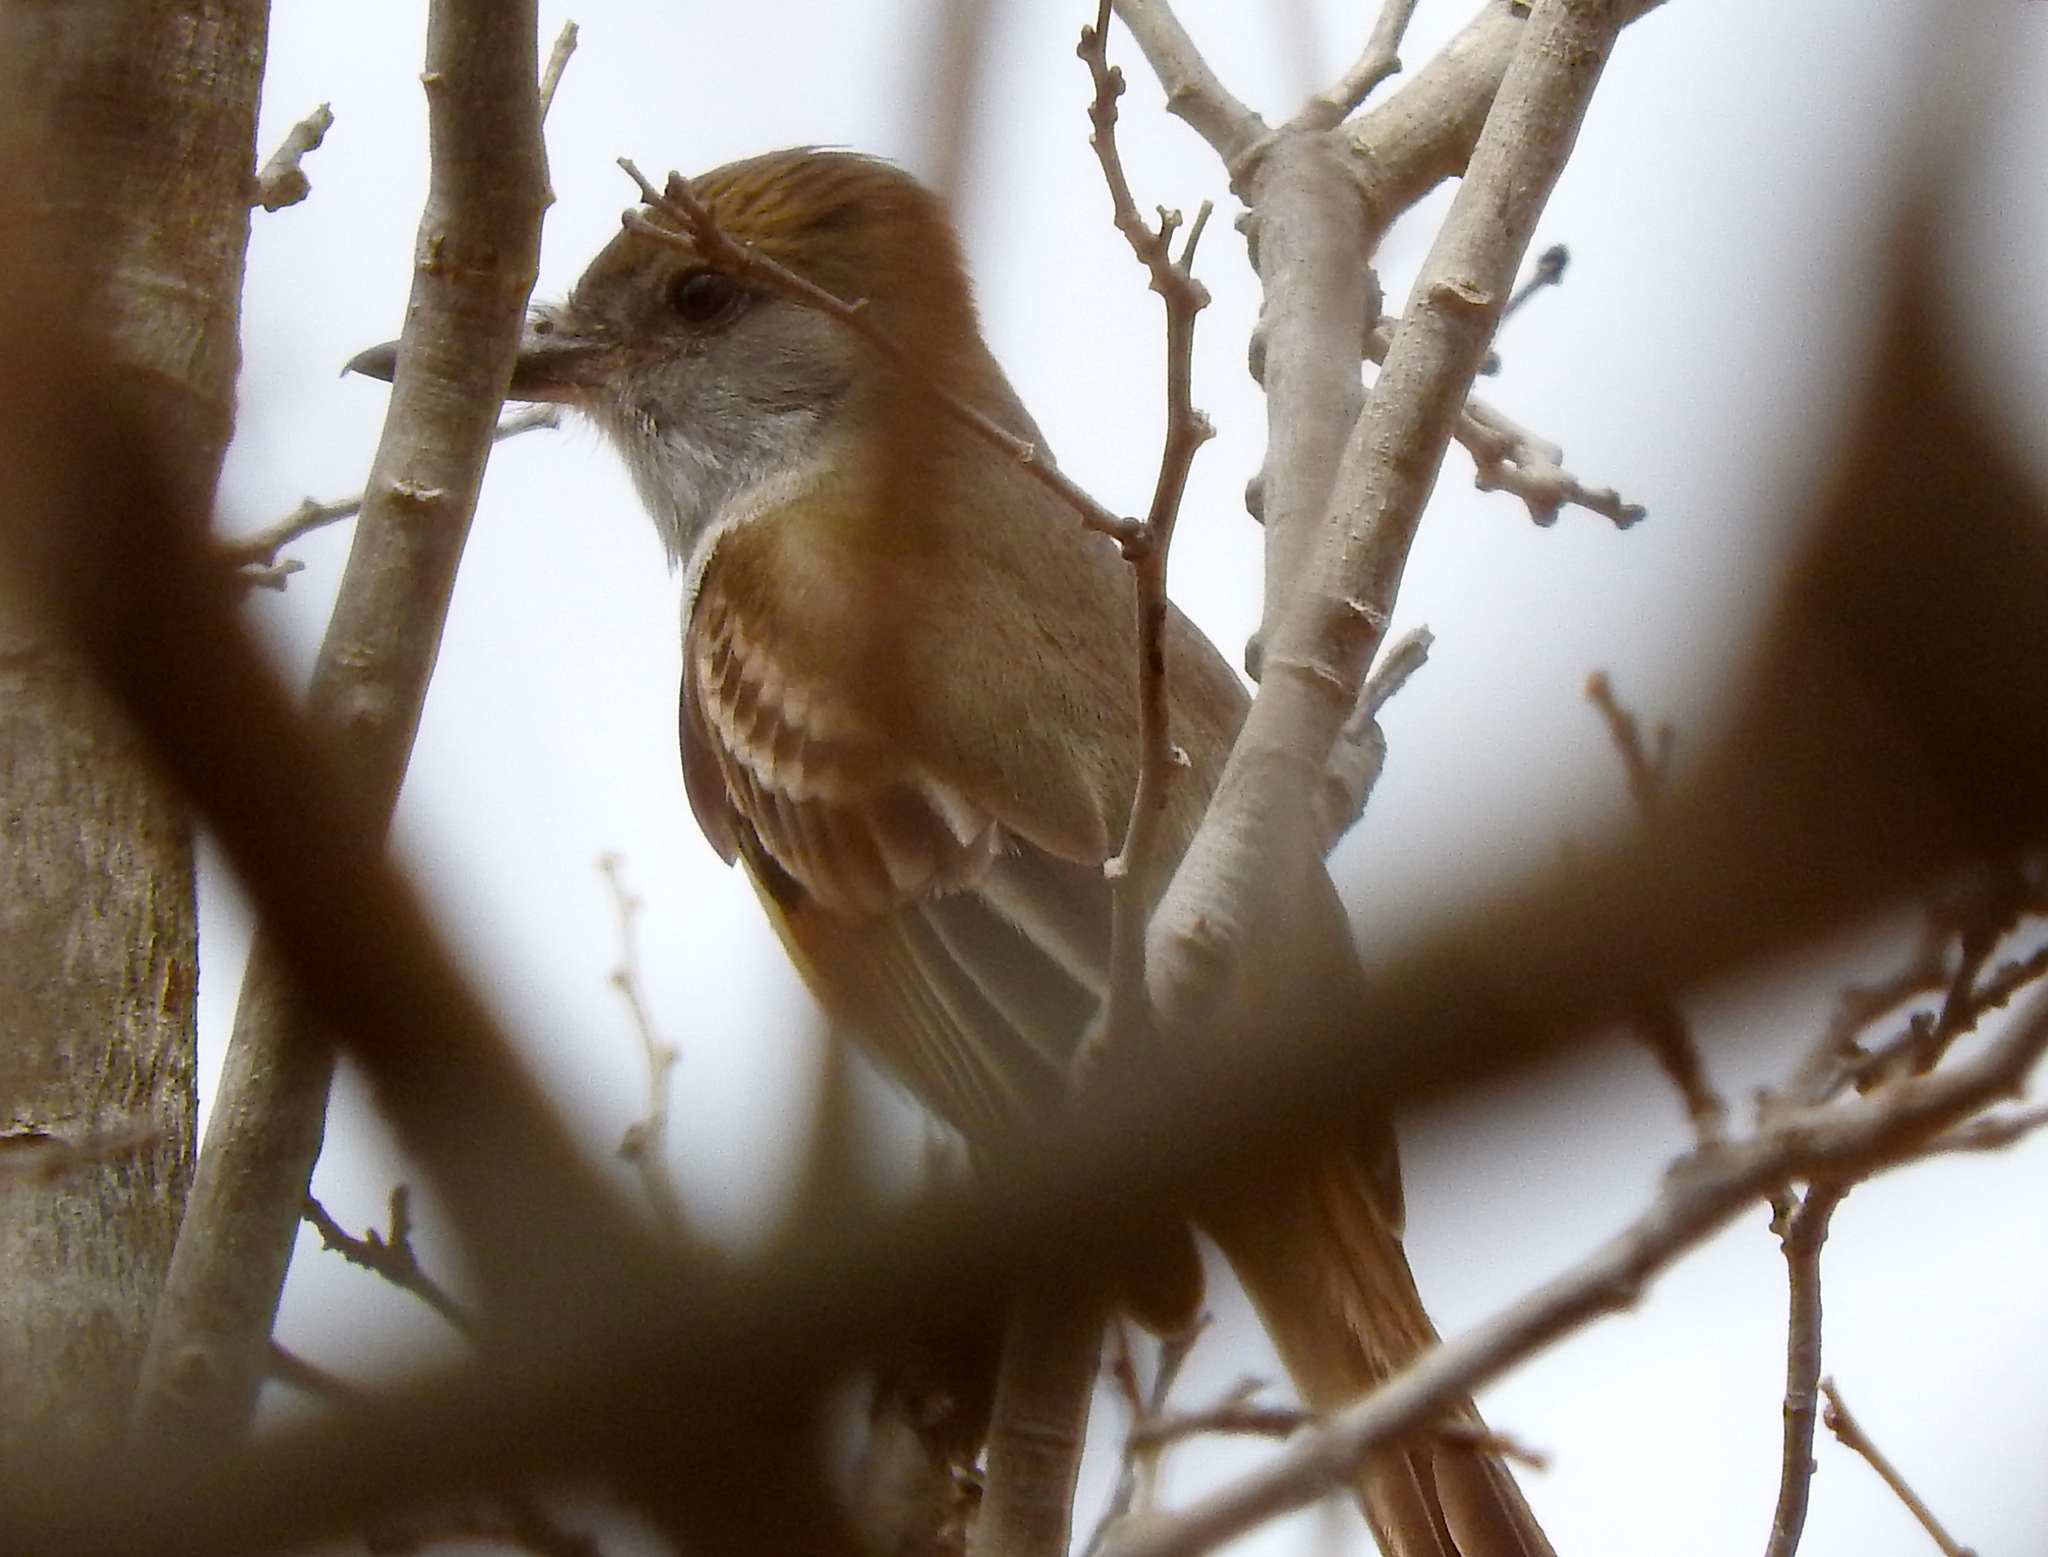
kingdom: Animalia
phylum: Chordata
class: Aves
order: Passeriformes
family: Tyrannidae
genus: Myiarchus
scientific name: Myiarchus
